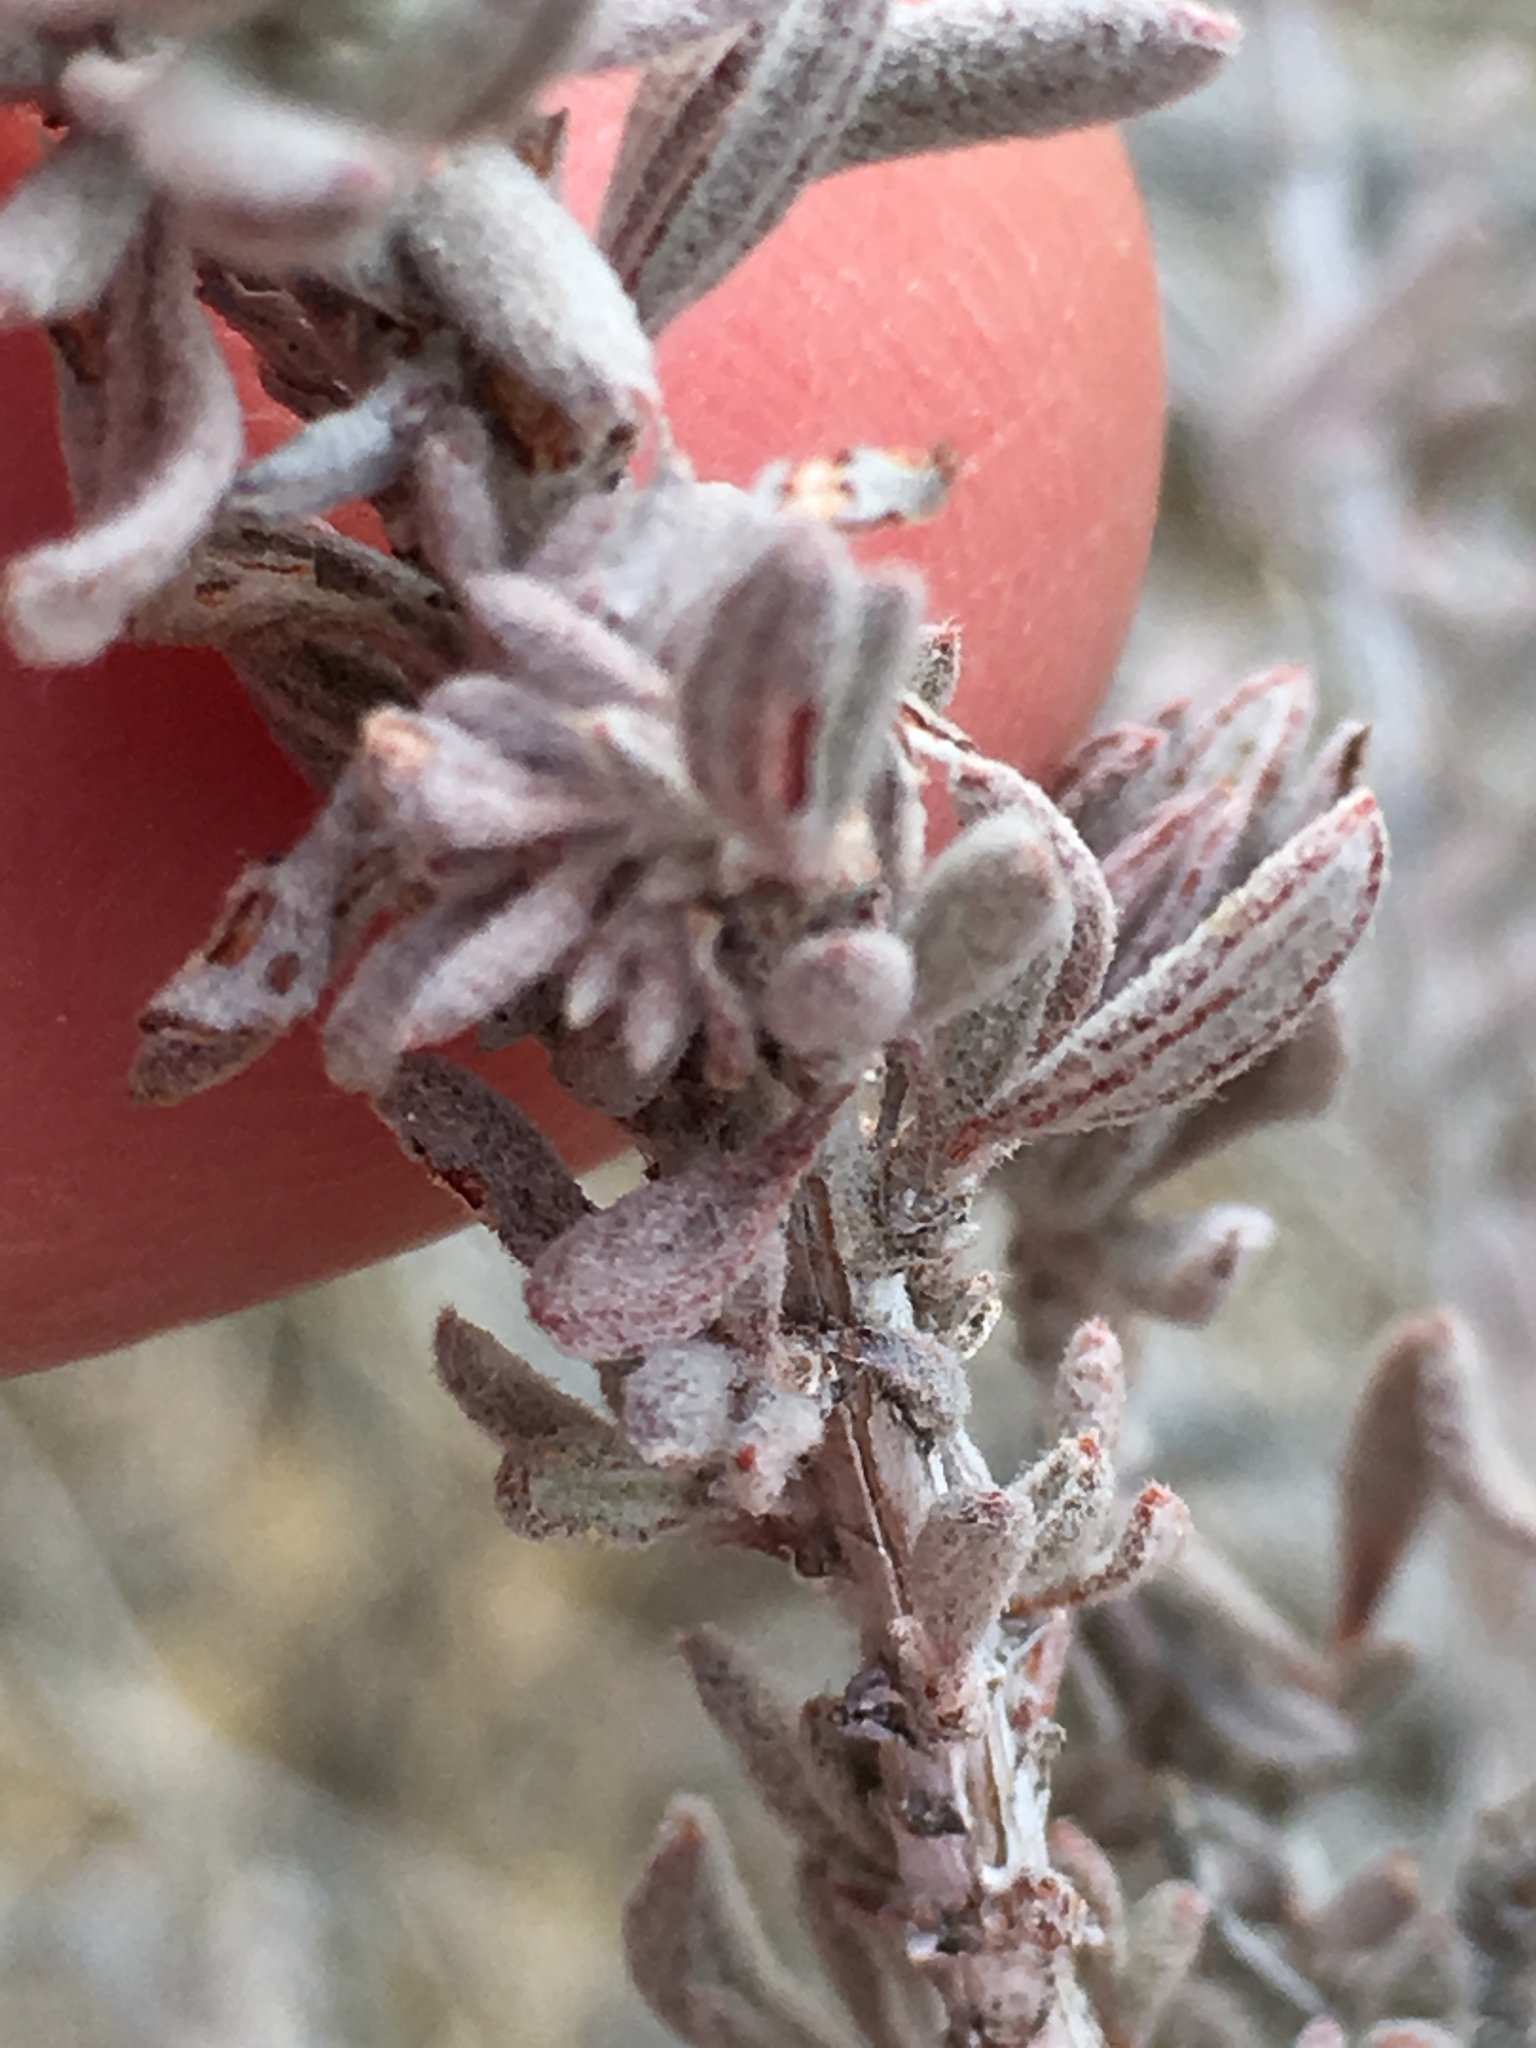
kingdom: Plantae
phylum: Tracheophyta
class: Magnoliopsida
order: Caryophyllales
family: Polygonaceae
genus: Eriogonum
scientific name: Eriogonum fasciculatum
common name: California wild buckwheat
